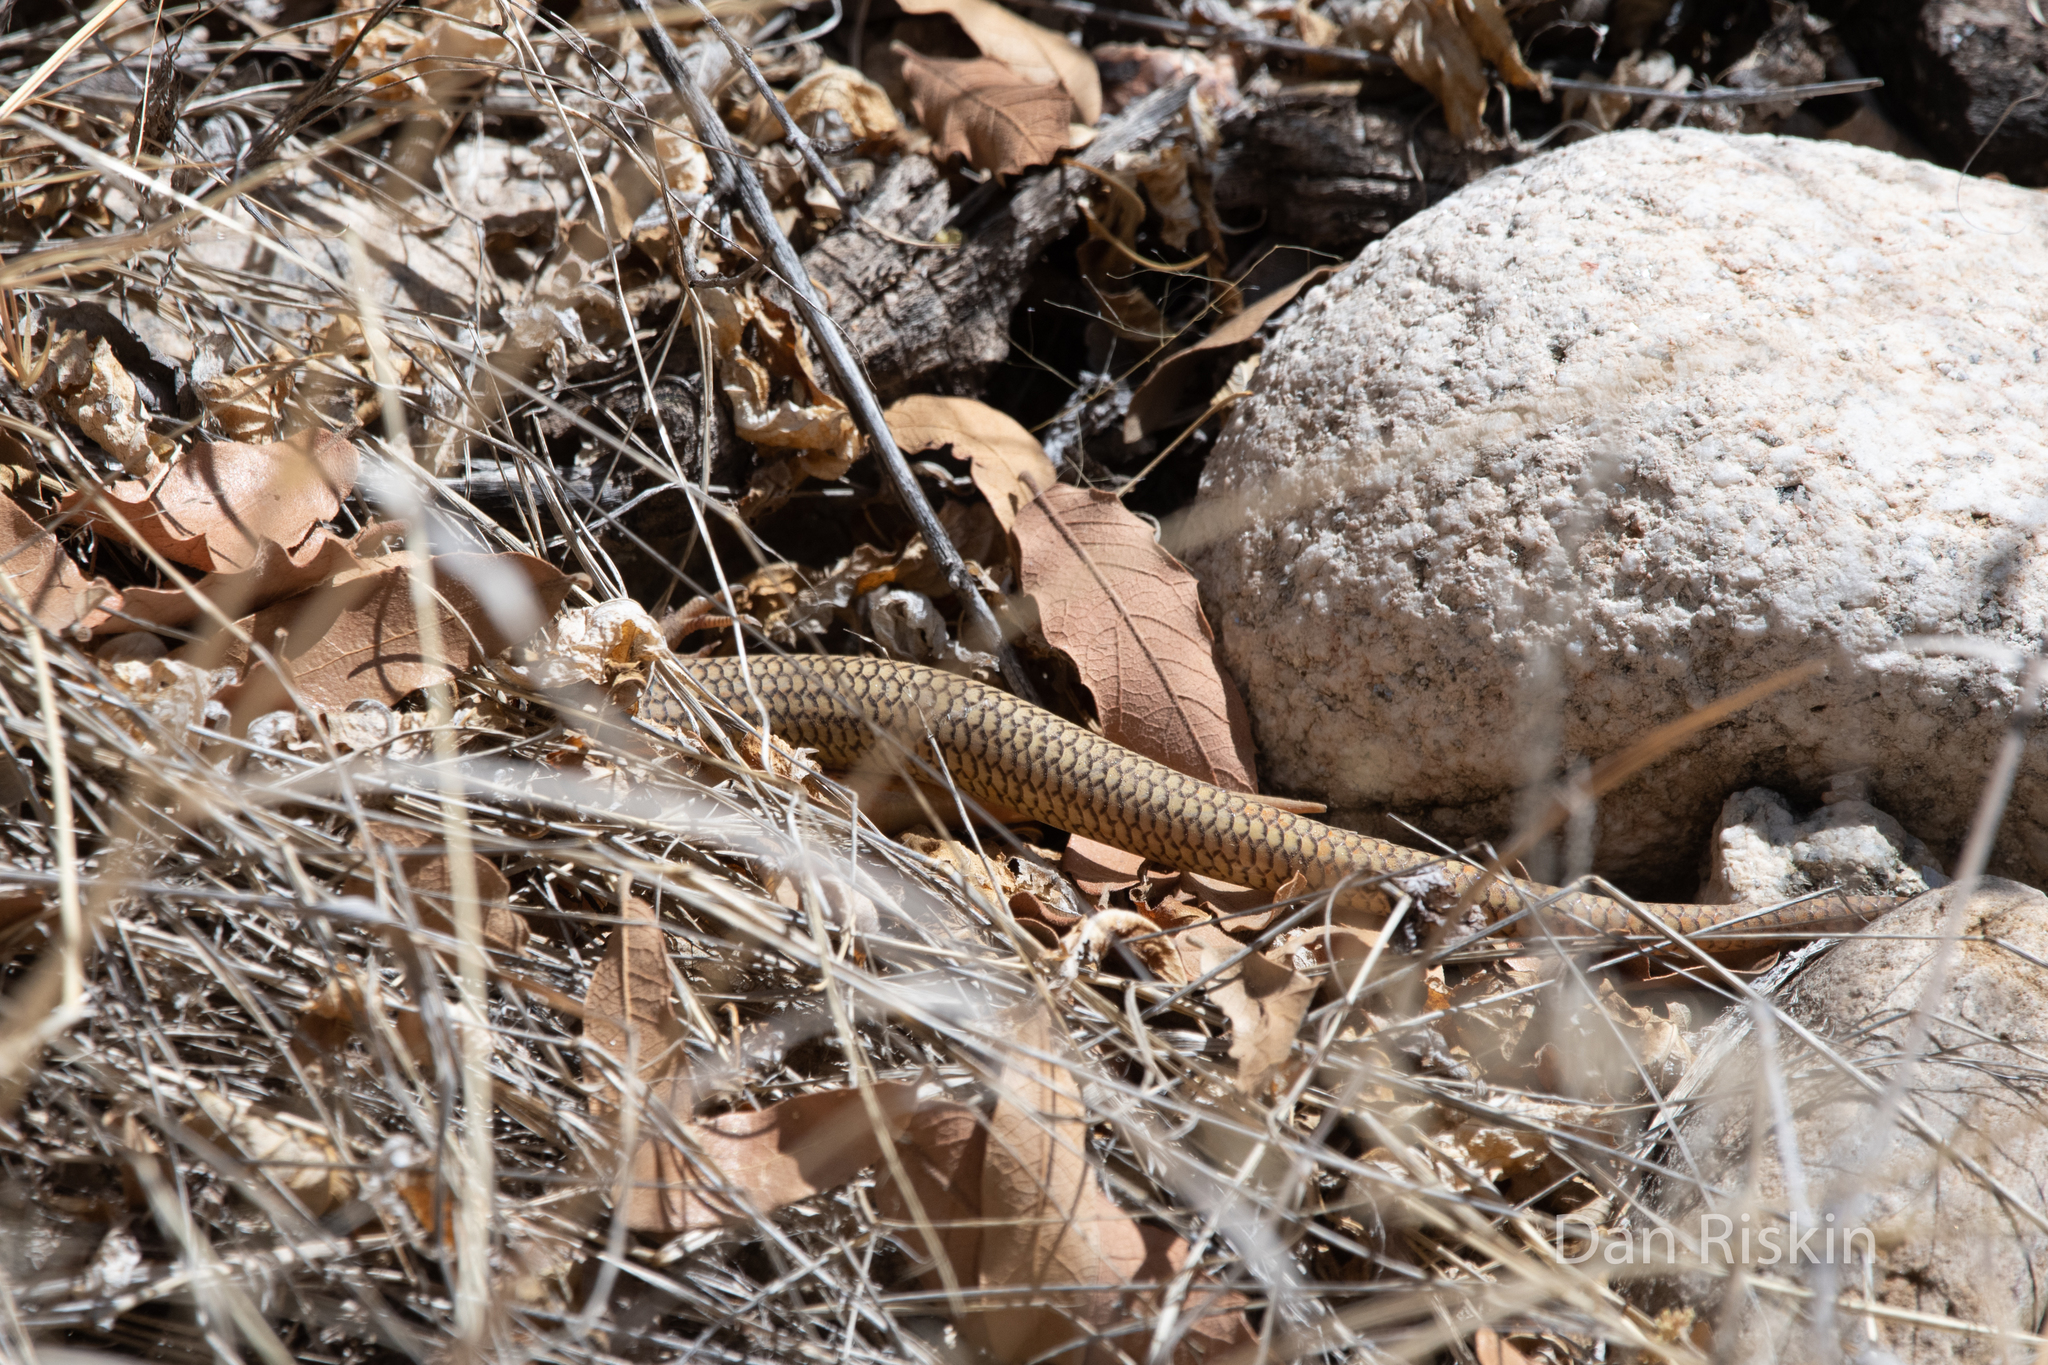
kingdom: Animalia
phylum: Chordata
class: Squamata
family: Scincidae
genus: Plestiodon
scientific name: Plestiodon obsoletus
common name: Great plains skink
